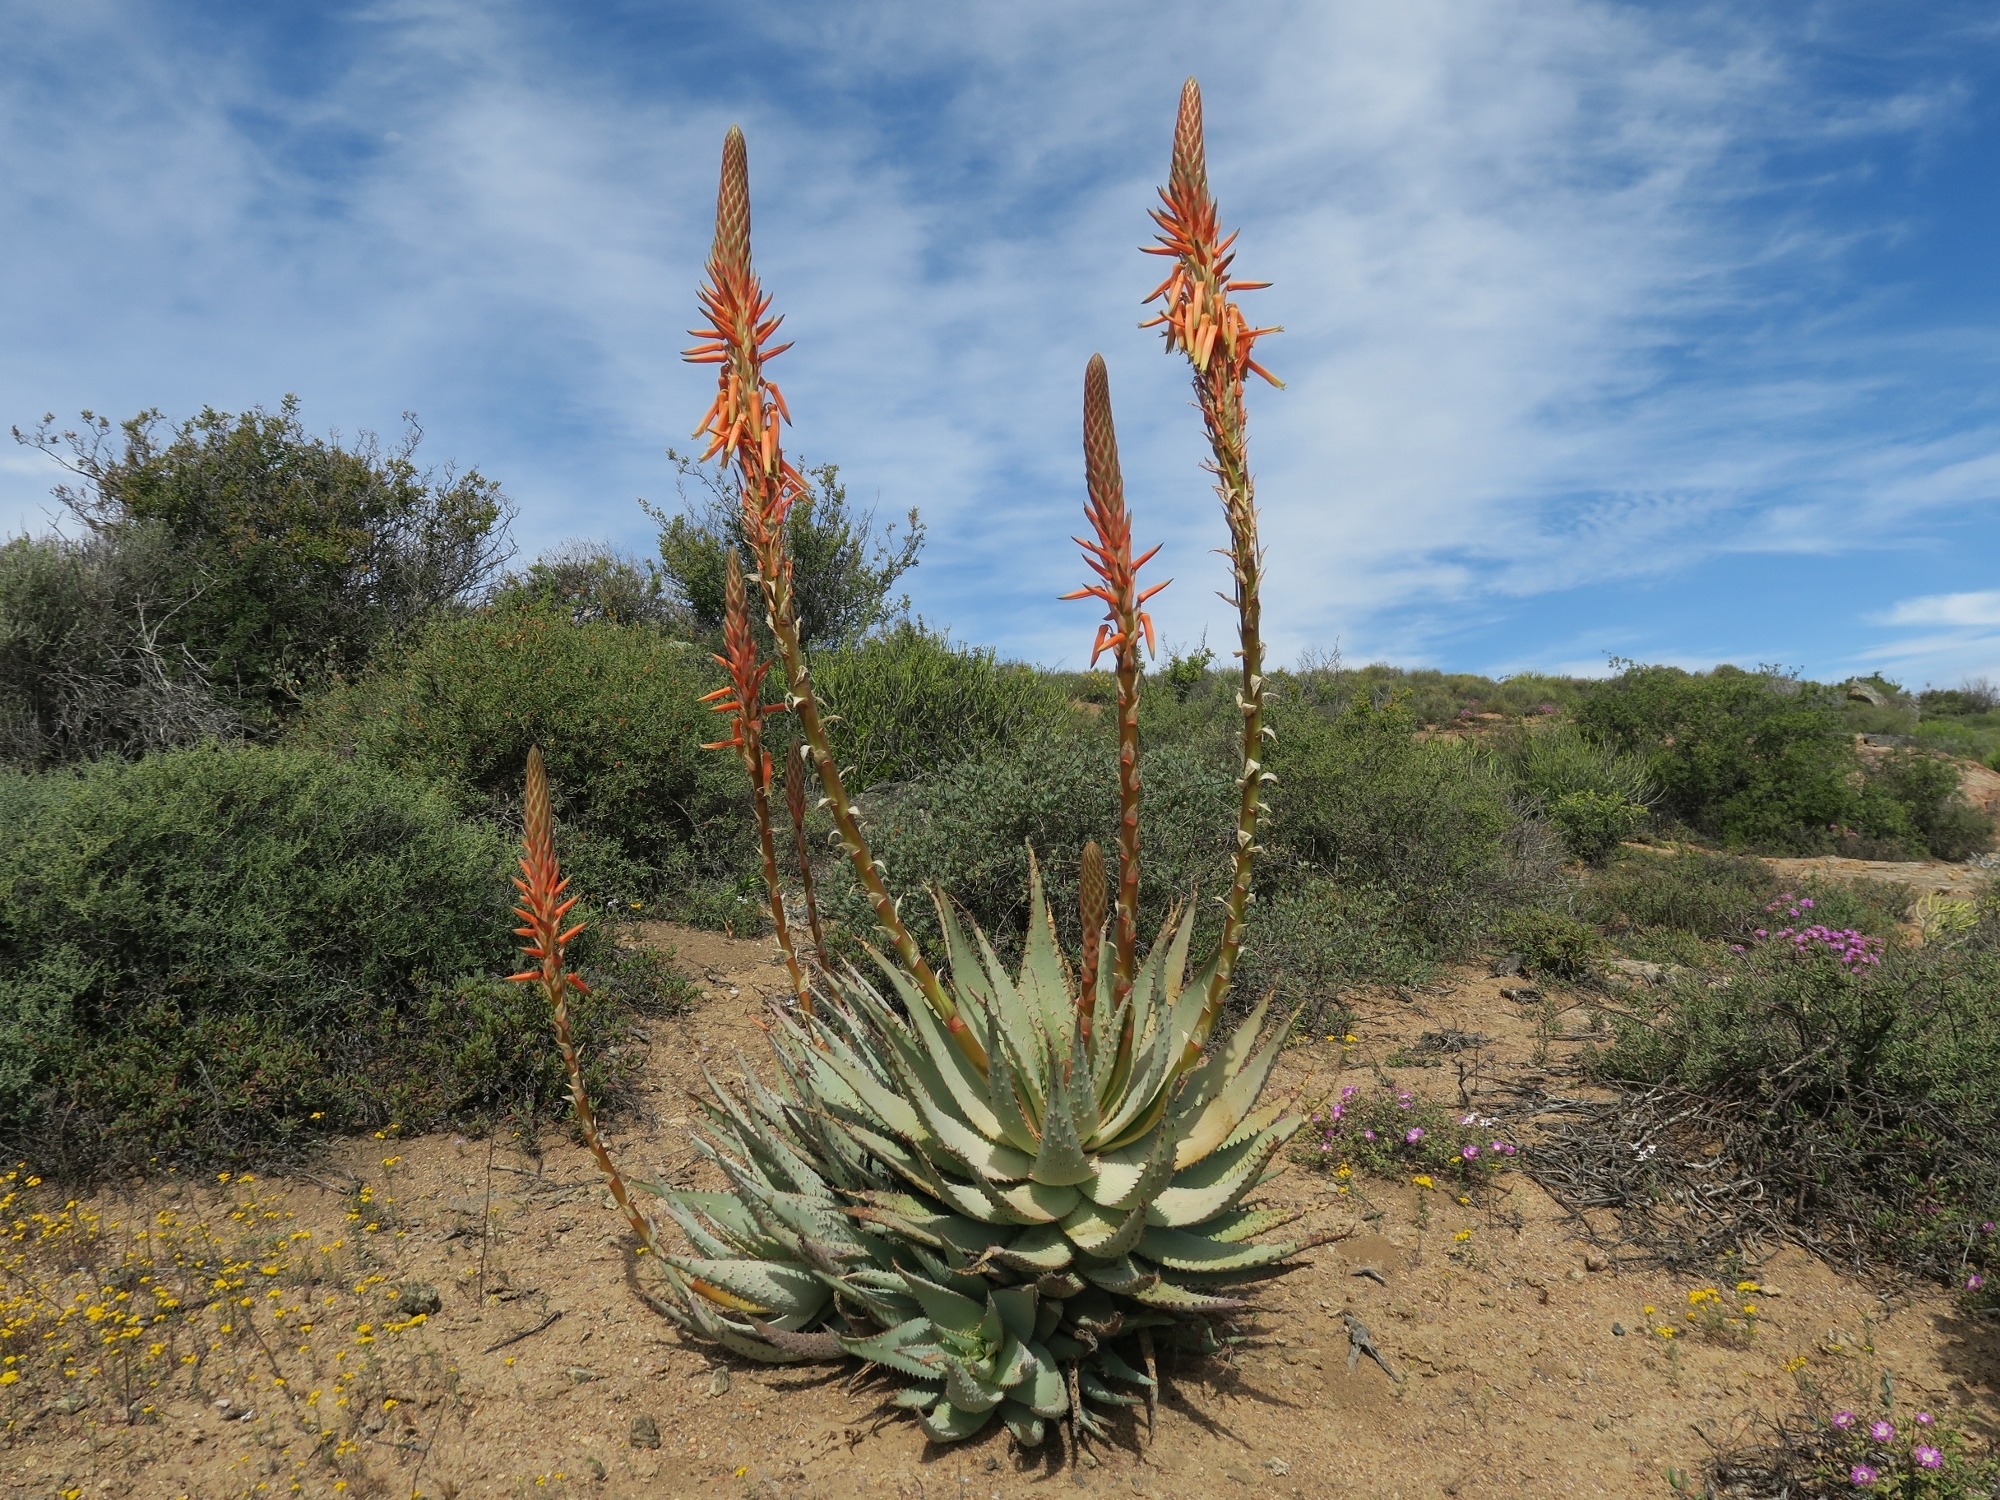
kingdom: Plantae
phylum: Tracheophyta
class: Liliopsida
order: Asparagales
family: Asphodelaceae
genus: Aloe
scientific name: Aloe glauca
